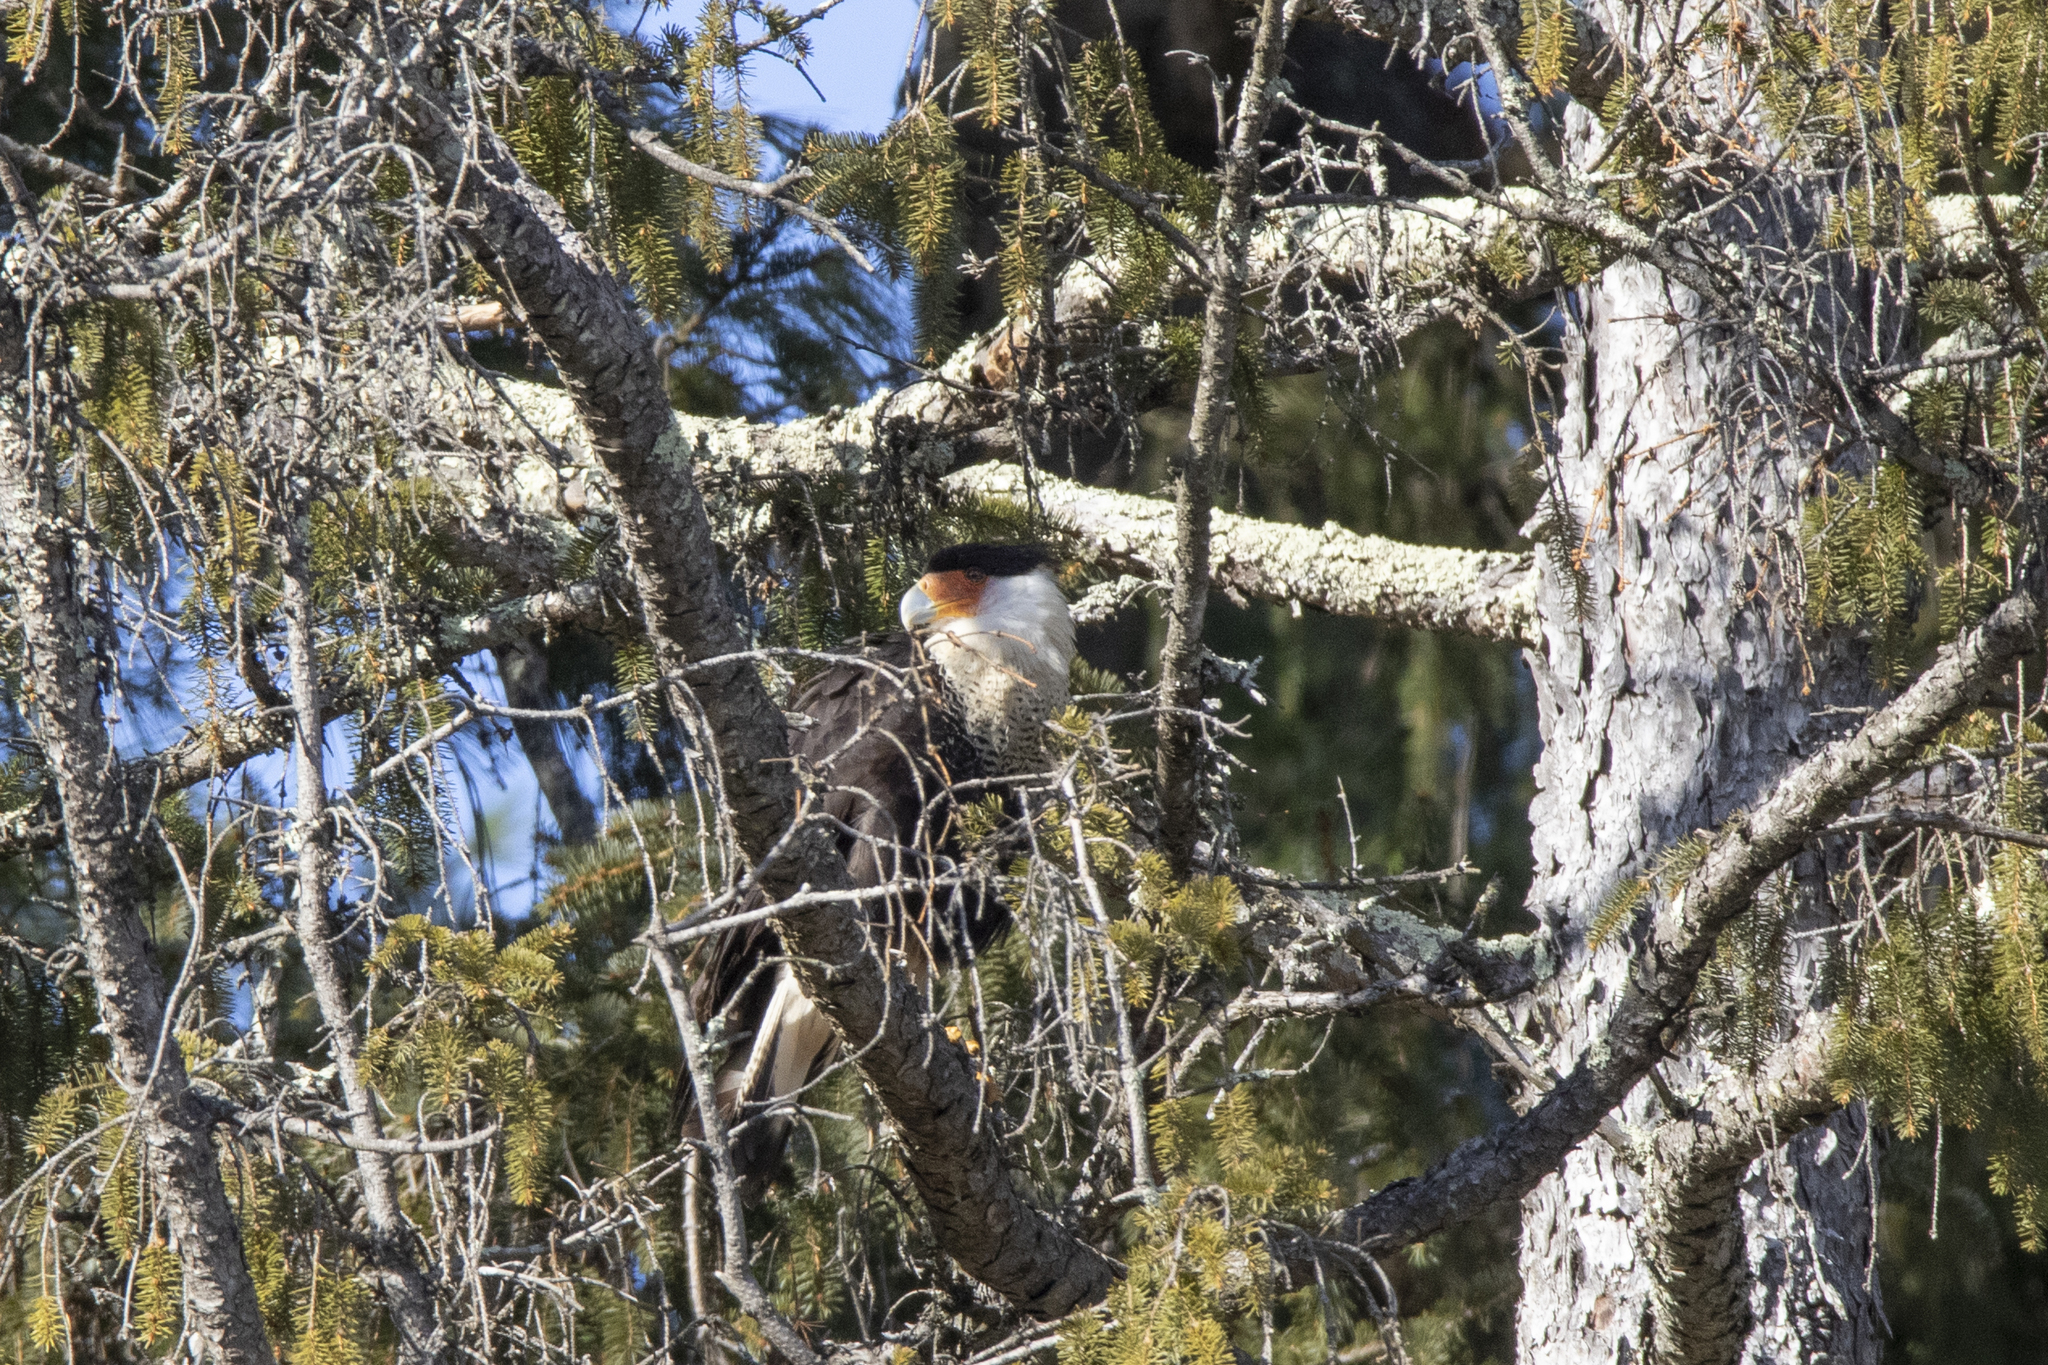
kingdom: Animalia
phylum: Chordata
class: Aves
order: Falconiformes
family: Falconidae
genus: Caracara
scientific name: Caracara plancus
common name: Southern caracara
